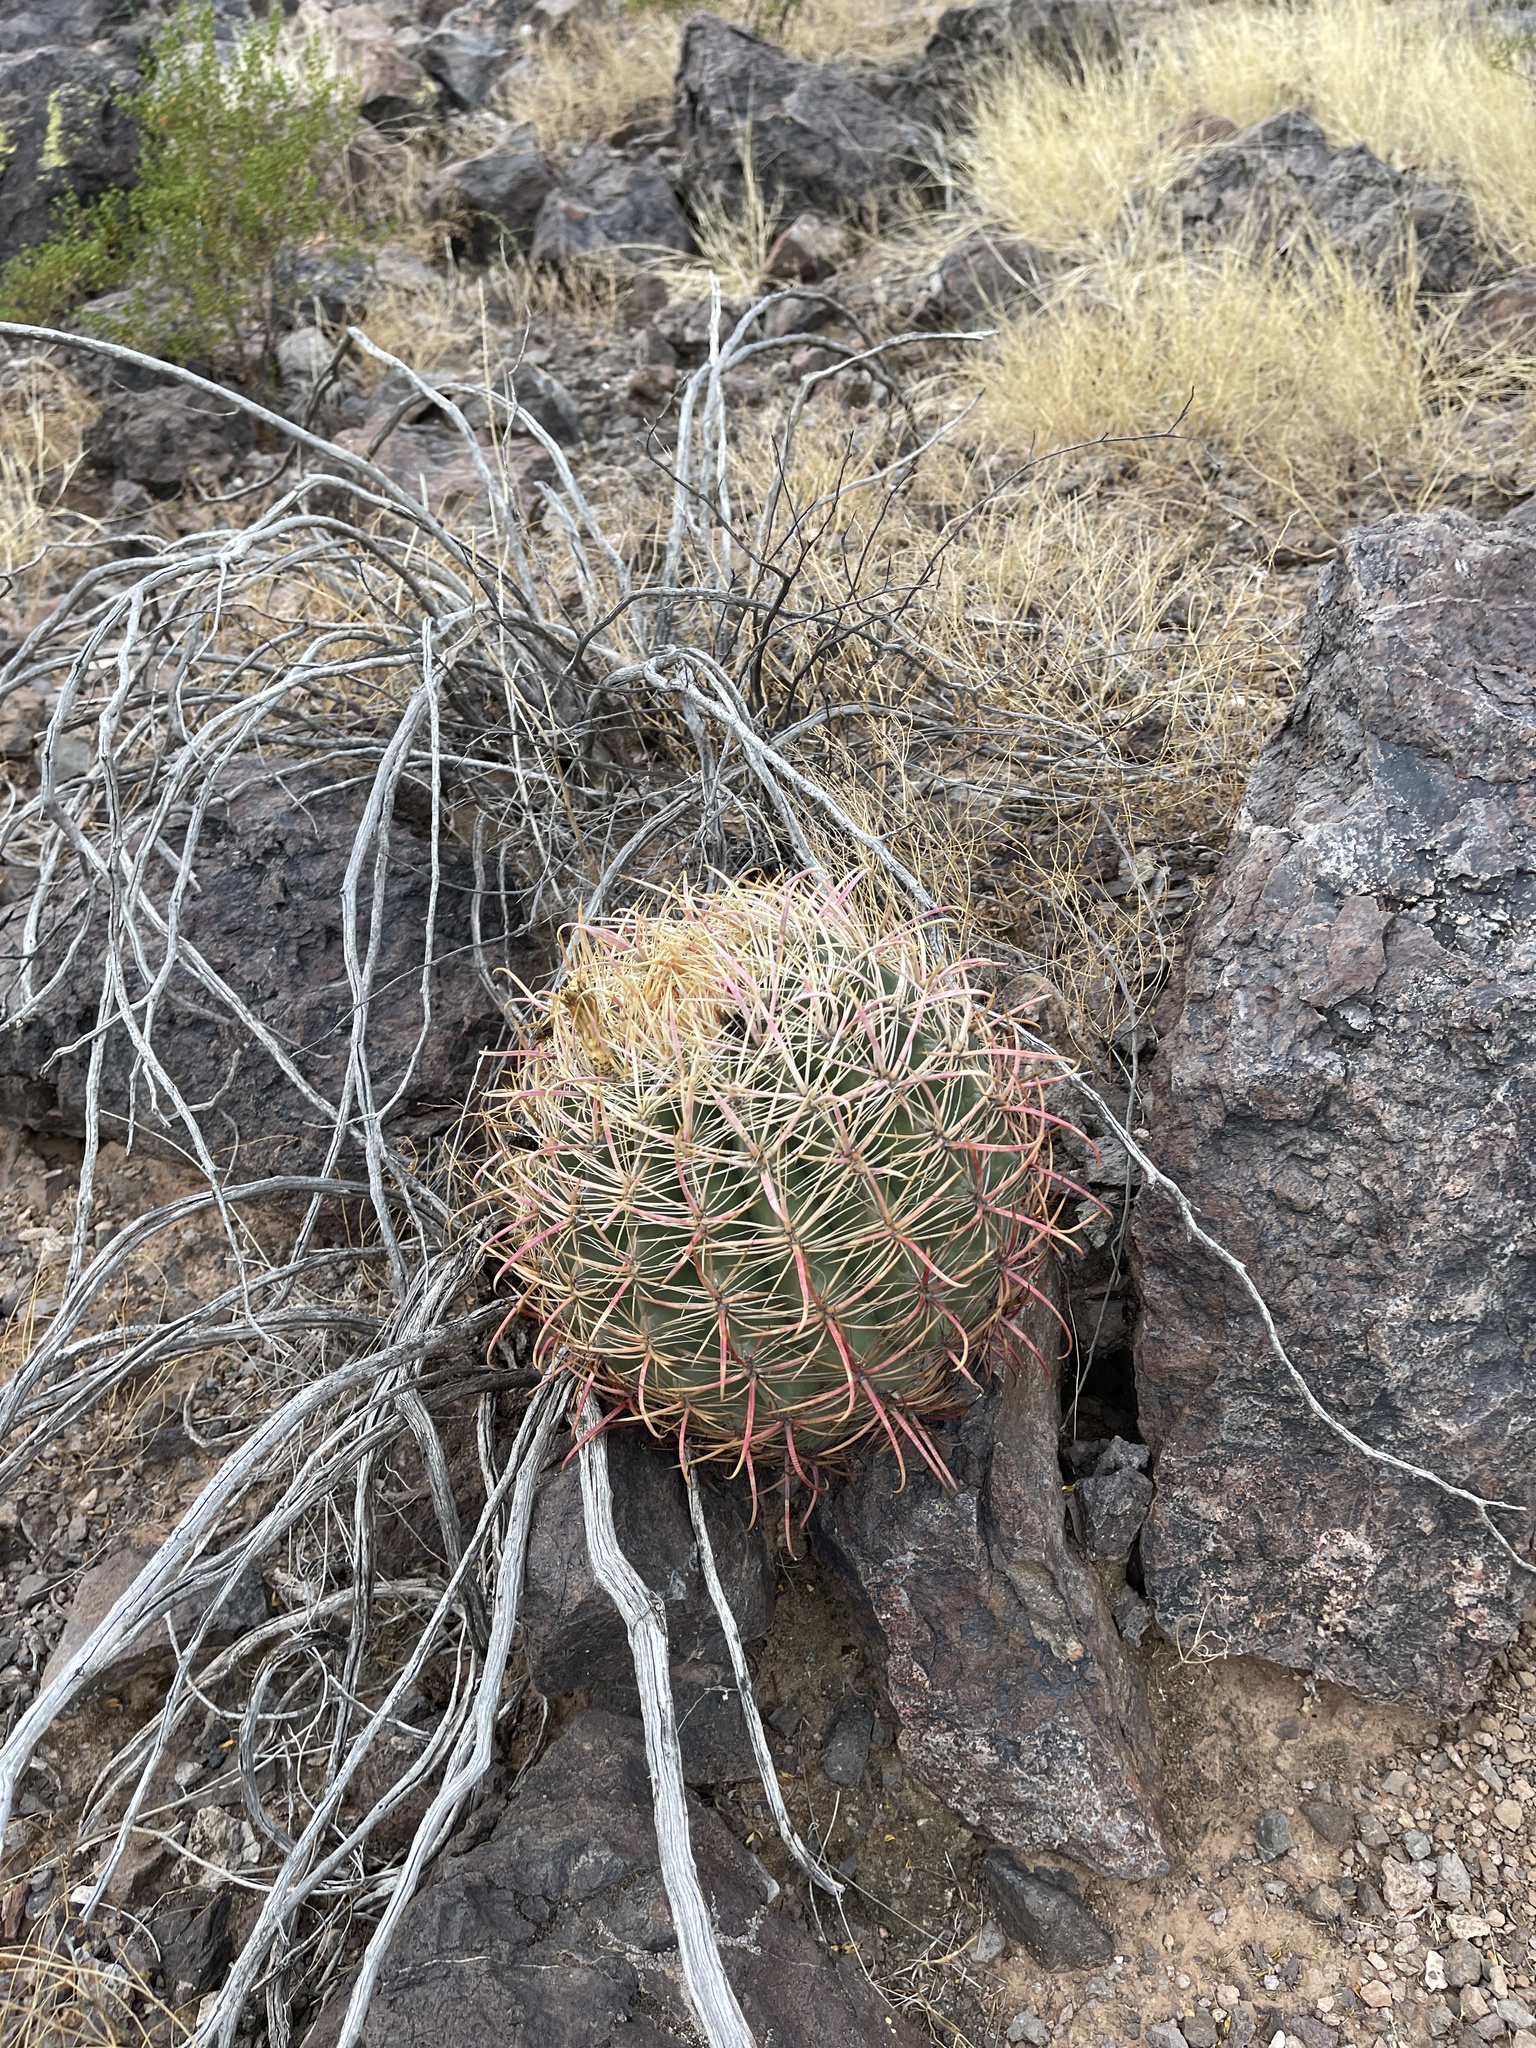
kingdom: Plantae
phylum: Tracheophyta
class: Magnoliopsida
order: Caryophyllales
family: Cactaceae
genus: Ferocactus
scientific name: Ferocactus cylindraceus
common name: California barrel cactus
